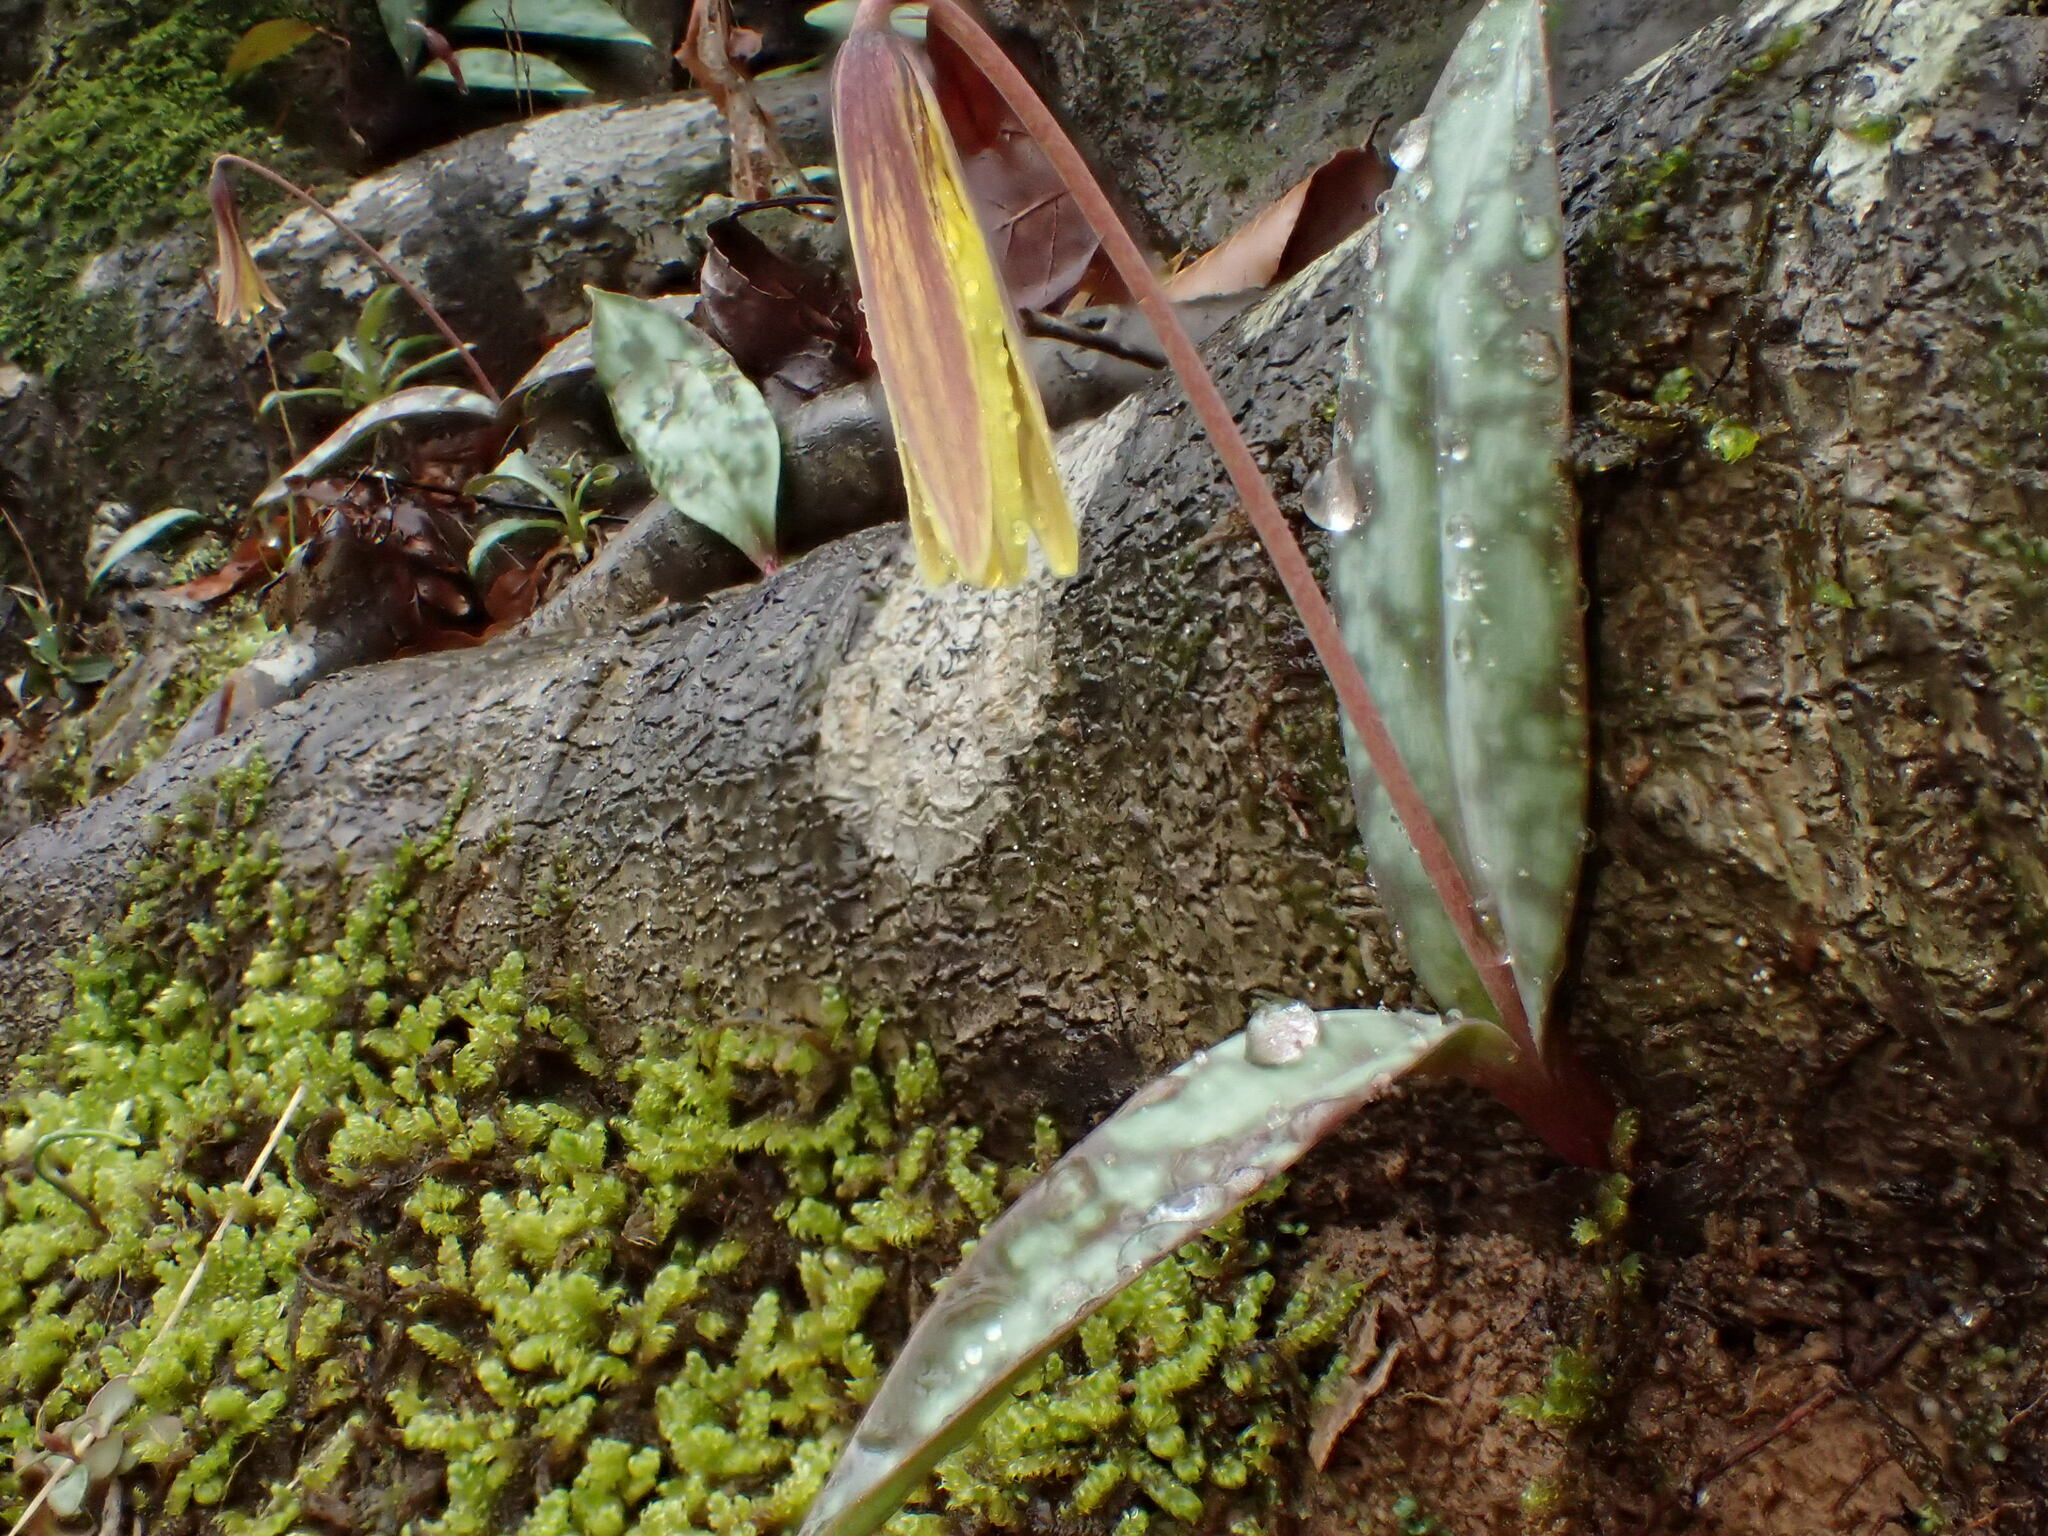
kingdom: Plantae
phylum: Tracheophyta
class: Liliopsida
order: Liliales
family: Liliaceae
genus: Erythronium
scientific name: Erythronium umbilicatum
